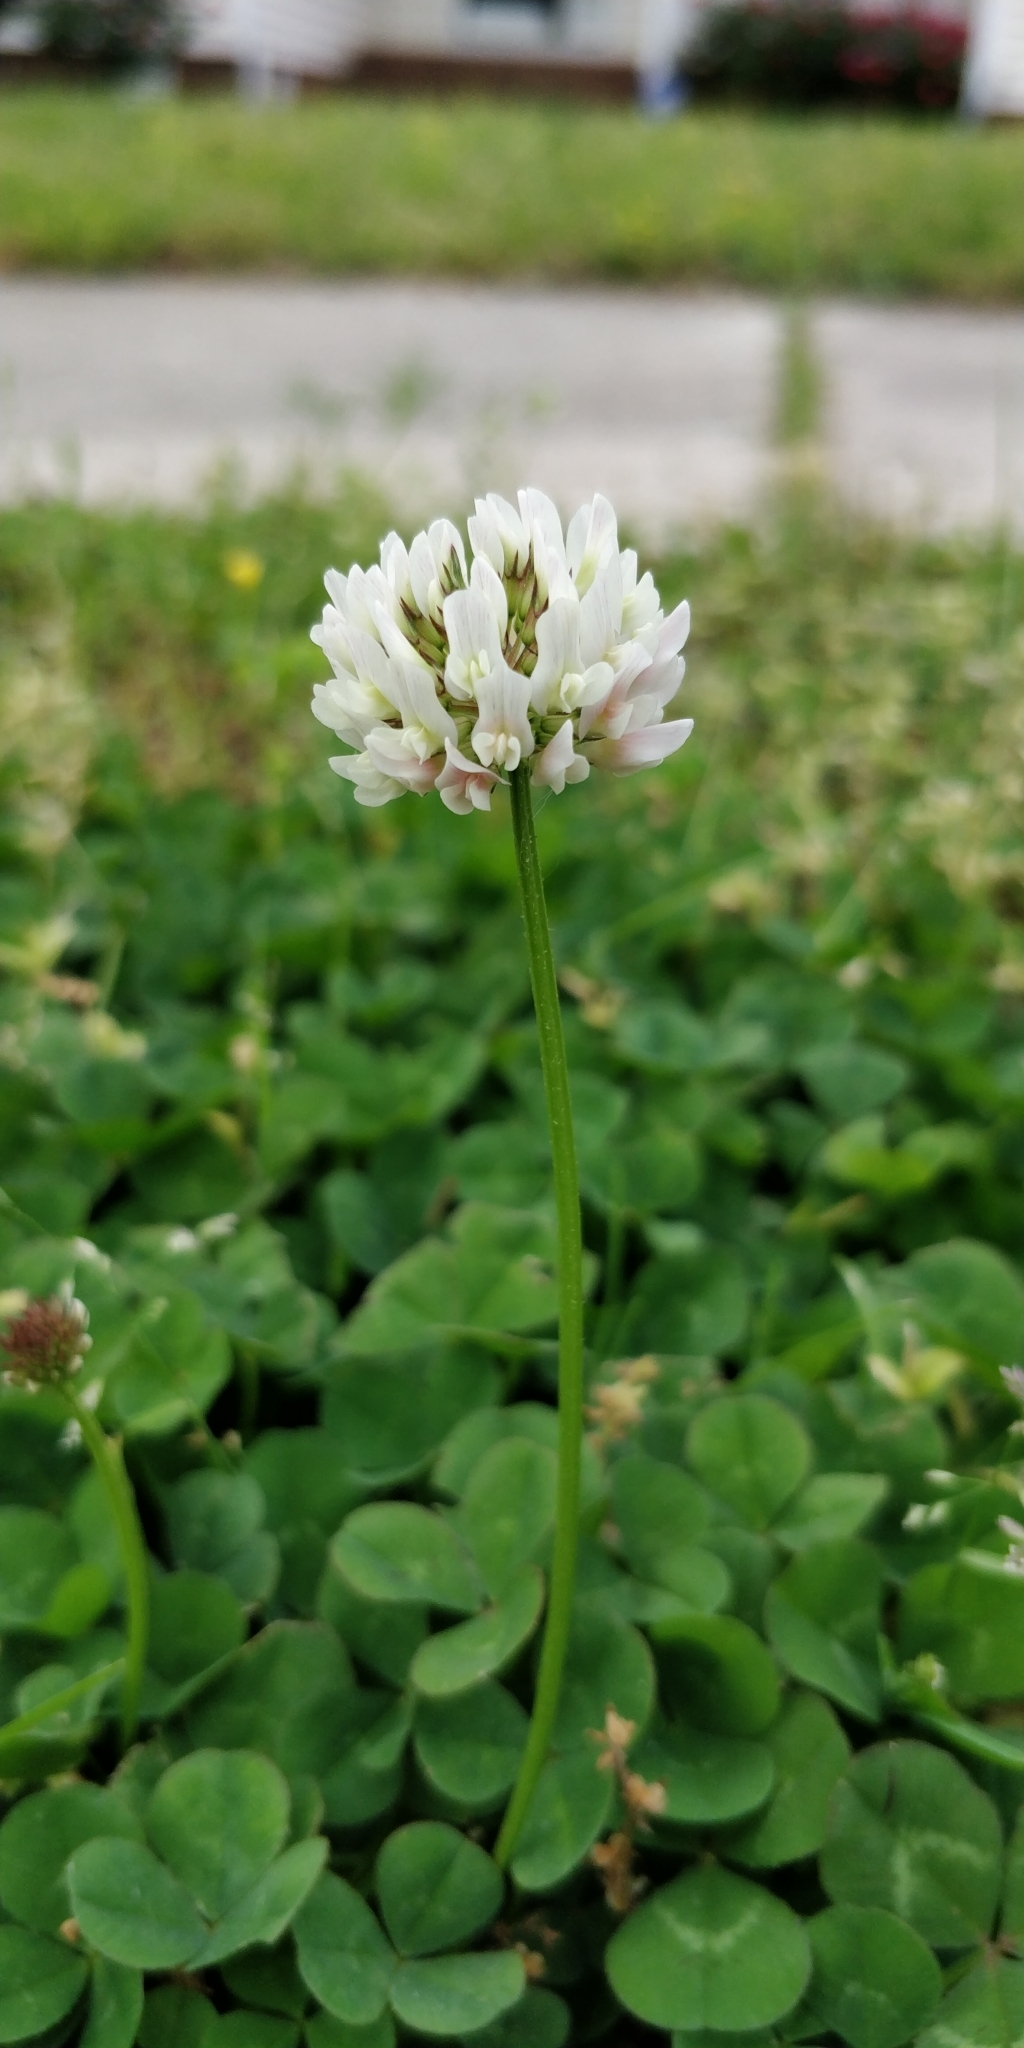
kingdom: Plantae
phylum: Tracheophyta
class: Magnoliopsida
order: Fabales
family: Fabaceae
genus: Trifolium
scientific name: Trifolium repens
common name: White clover
